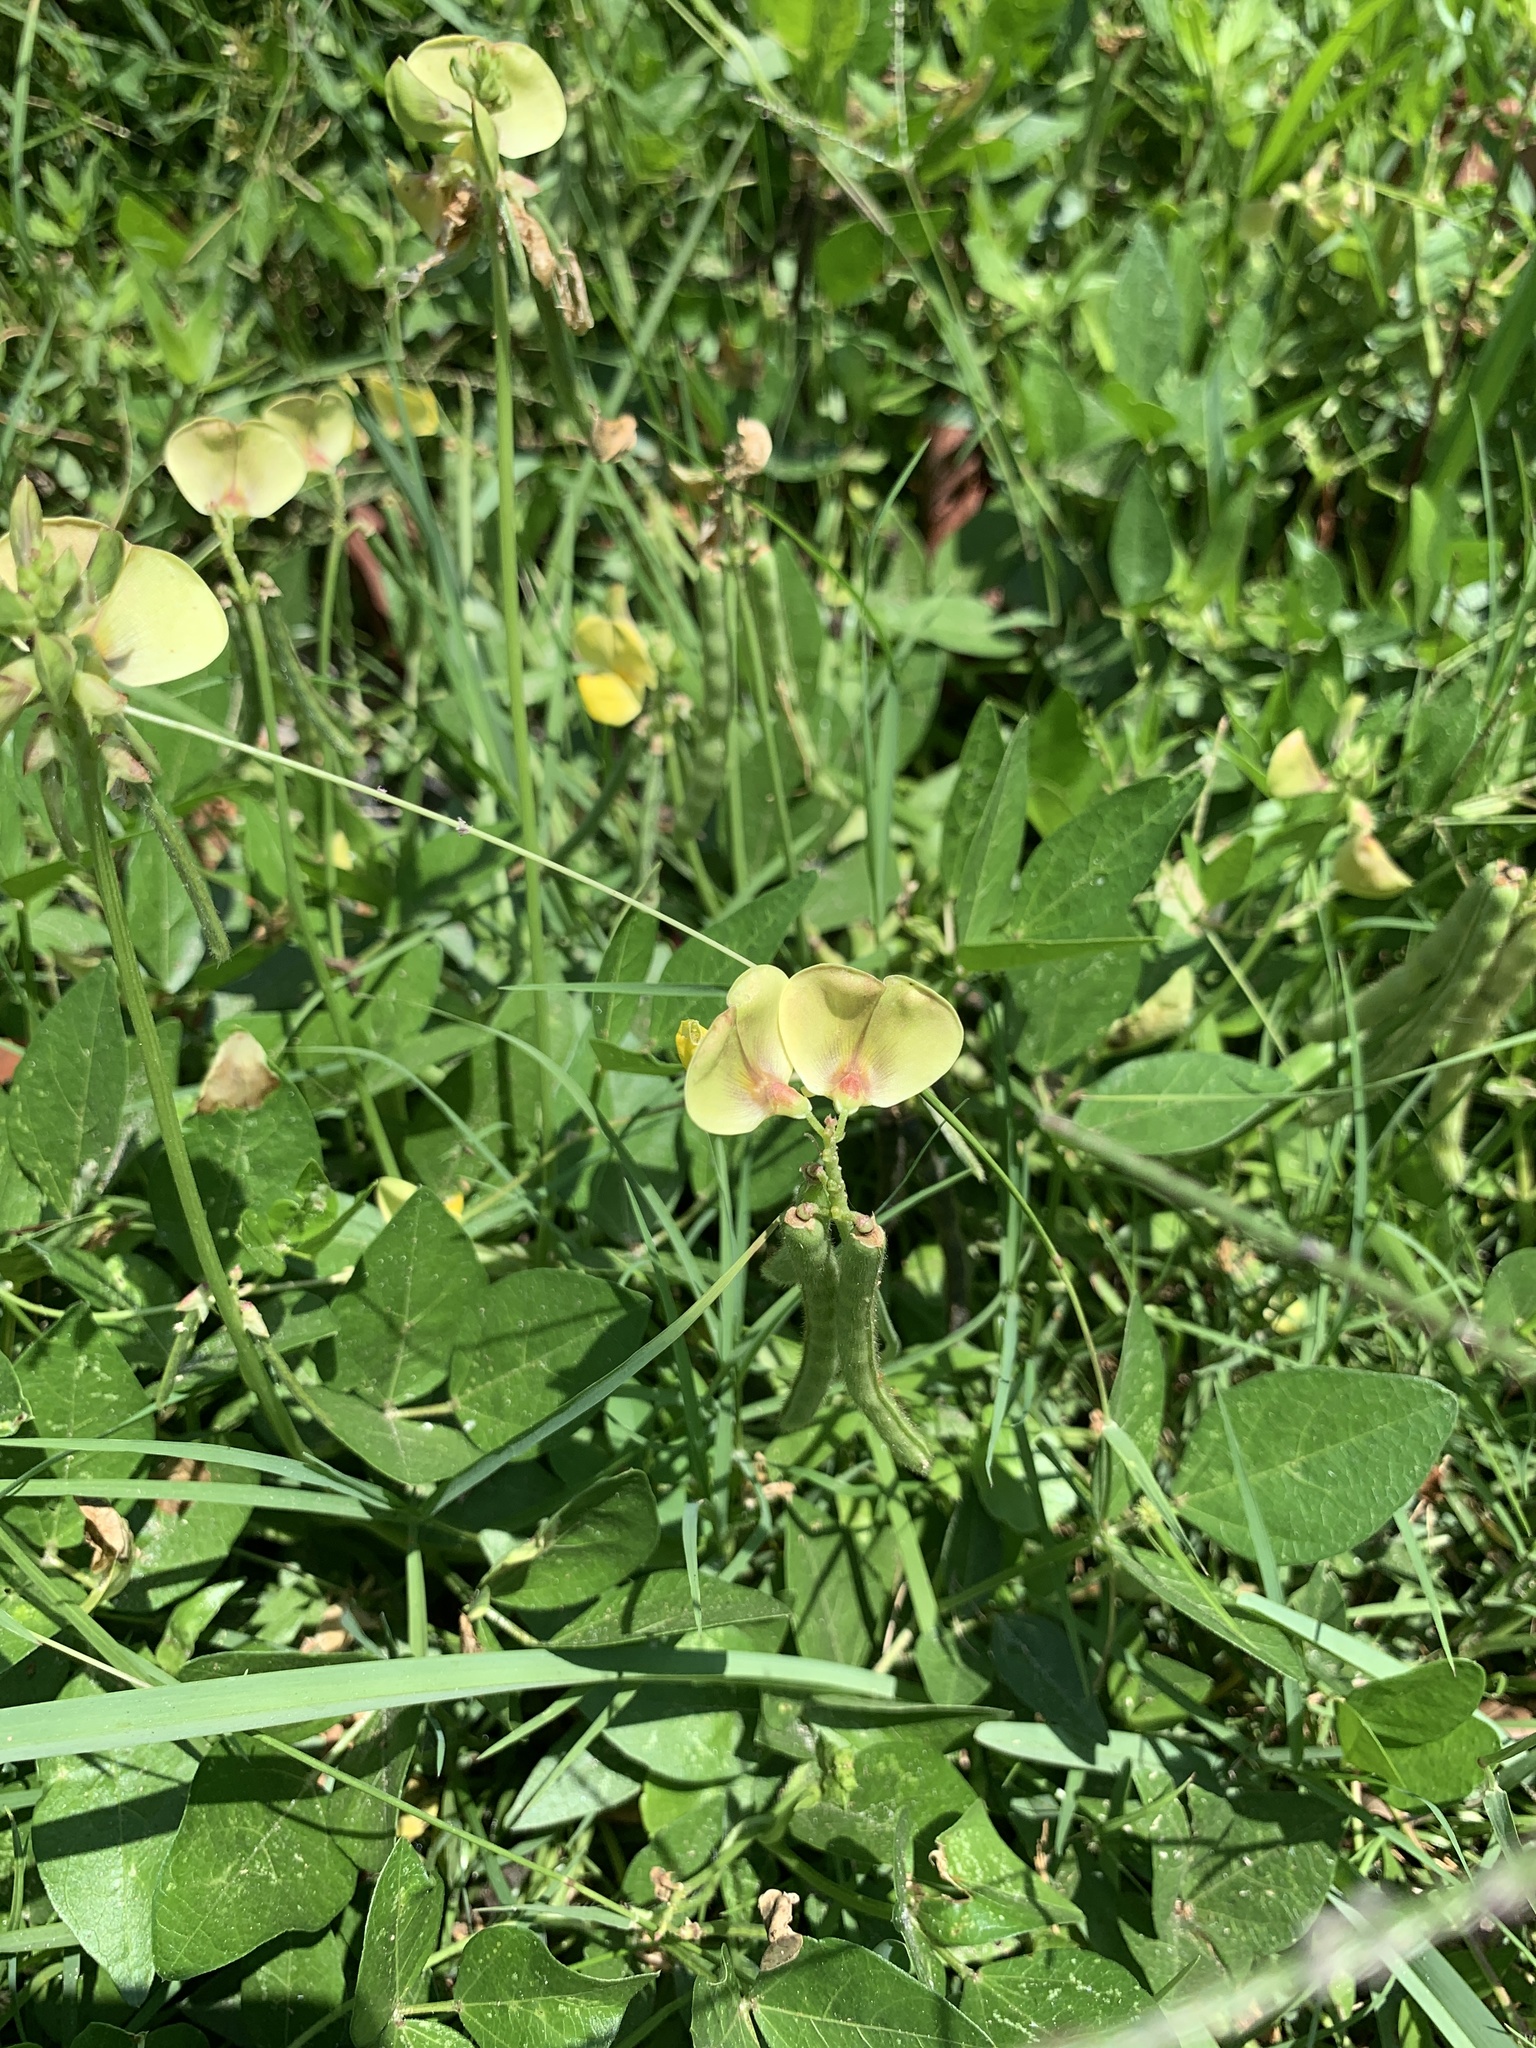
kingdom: Plantae
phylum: Tracheophyta
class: Magnoliopsida
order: Fabales
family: Fabaceae
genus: Vigna
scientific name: Vigna luteola
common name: Hairypod cowpea
